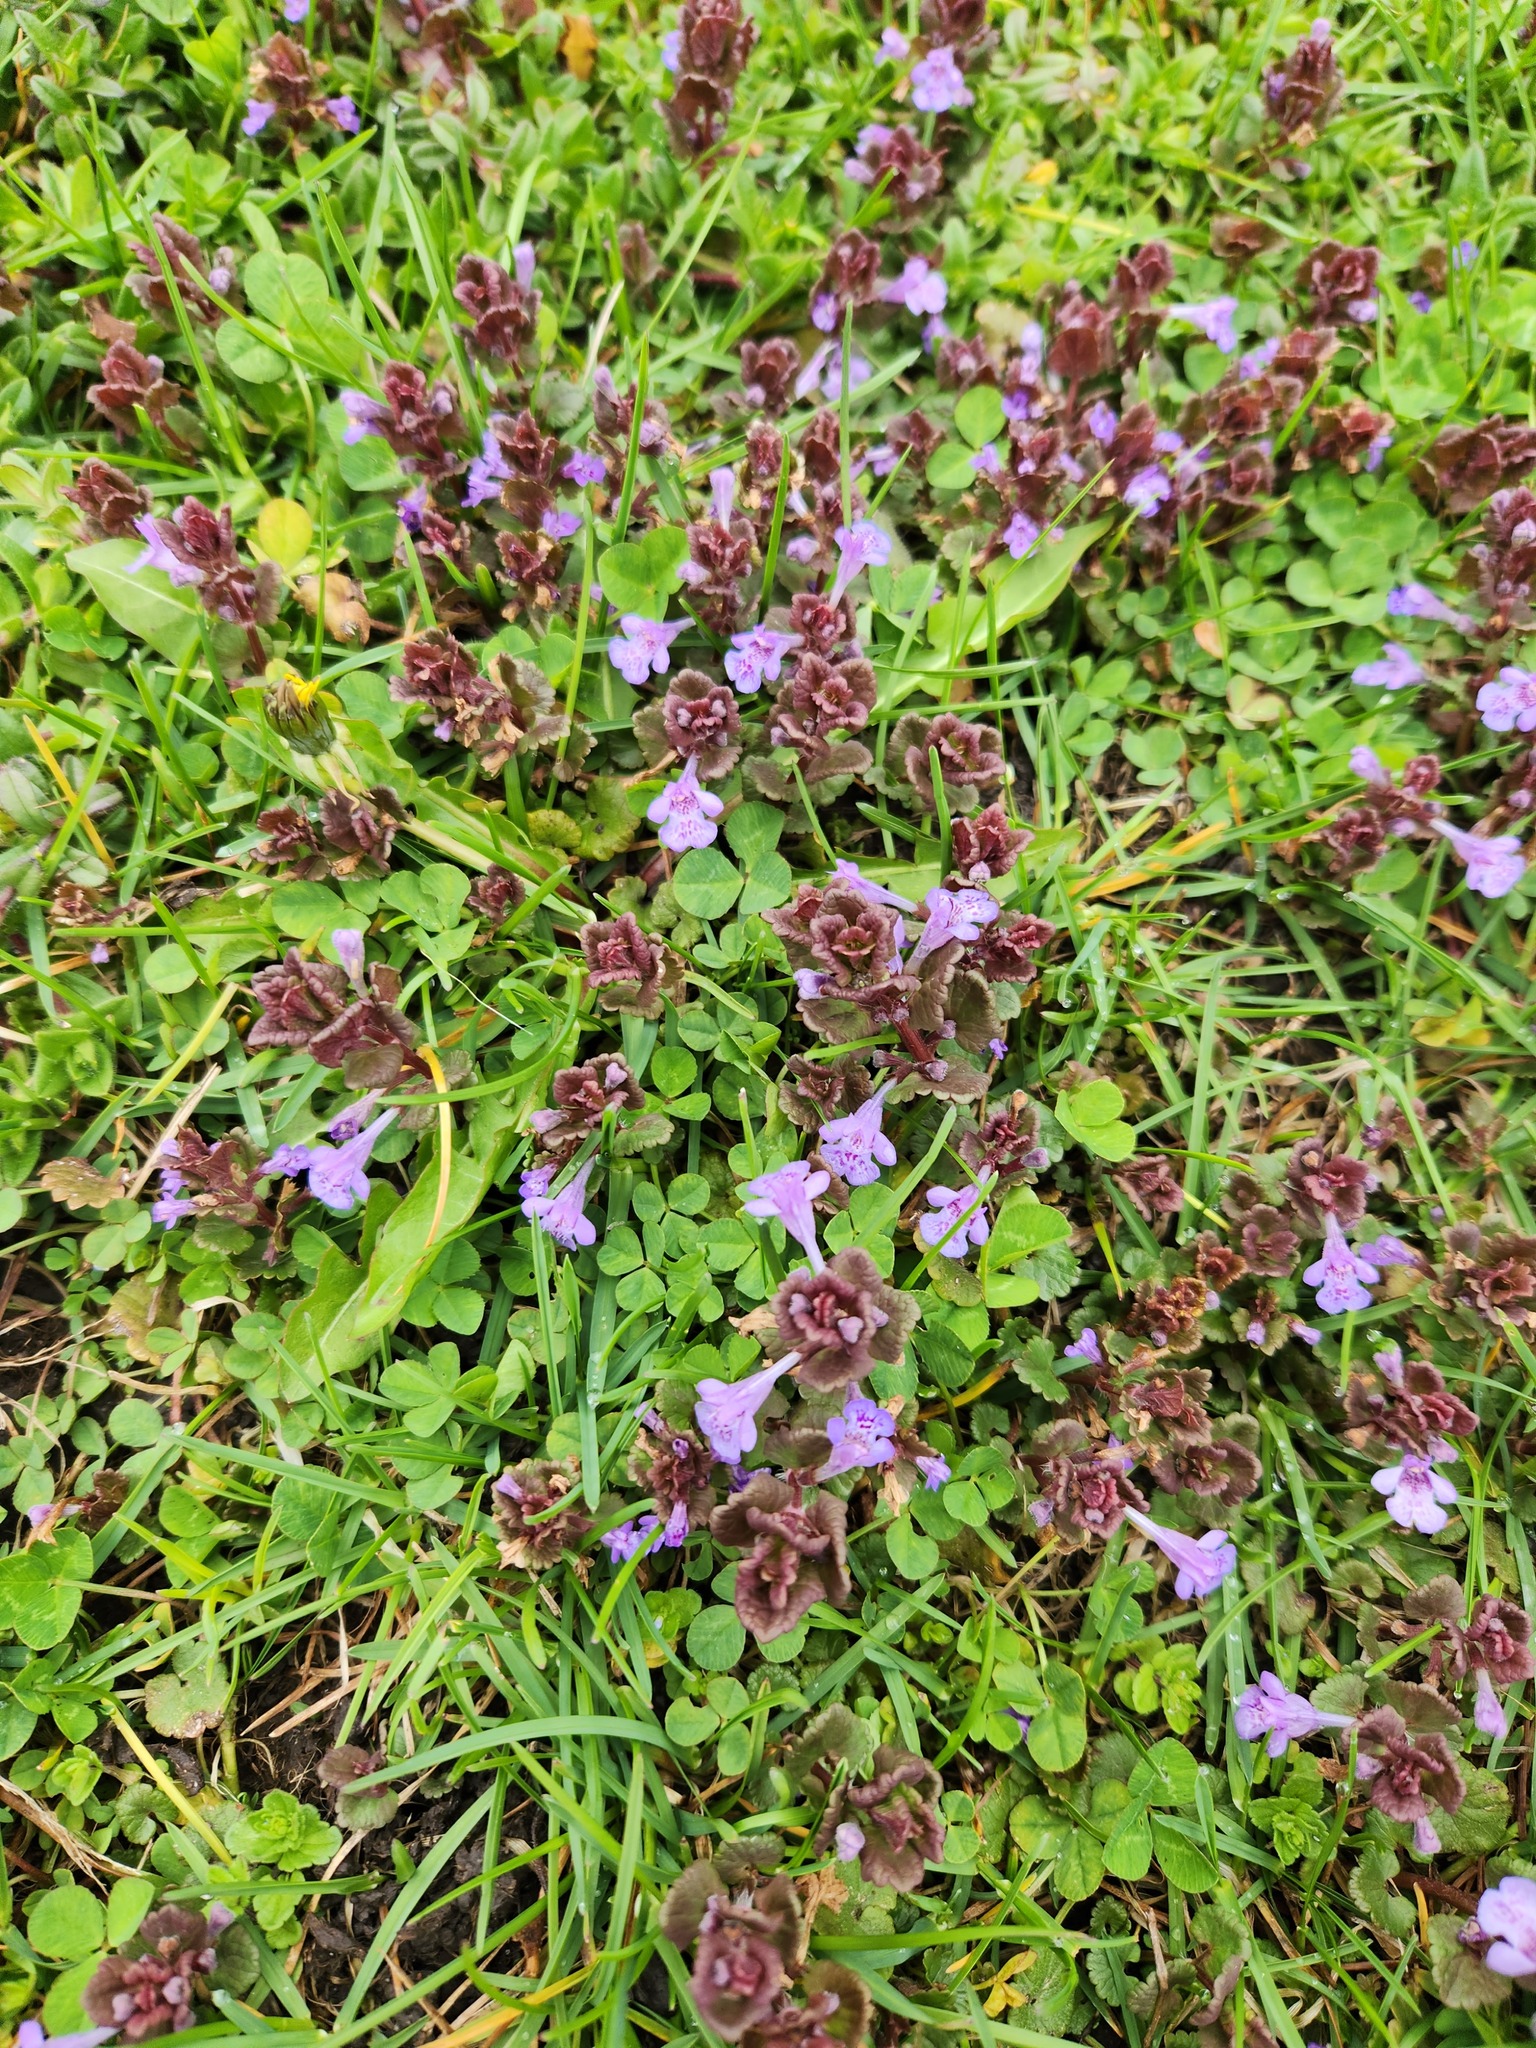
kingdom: Plantae
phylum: Tracheophyta
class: Magnoliopsida
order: Lamiales
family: Lamiaceae
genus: Glechoma
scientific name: Glechoma hederacea
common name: Ground ivy
